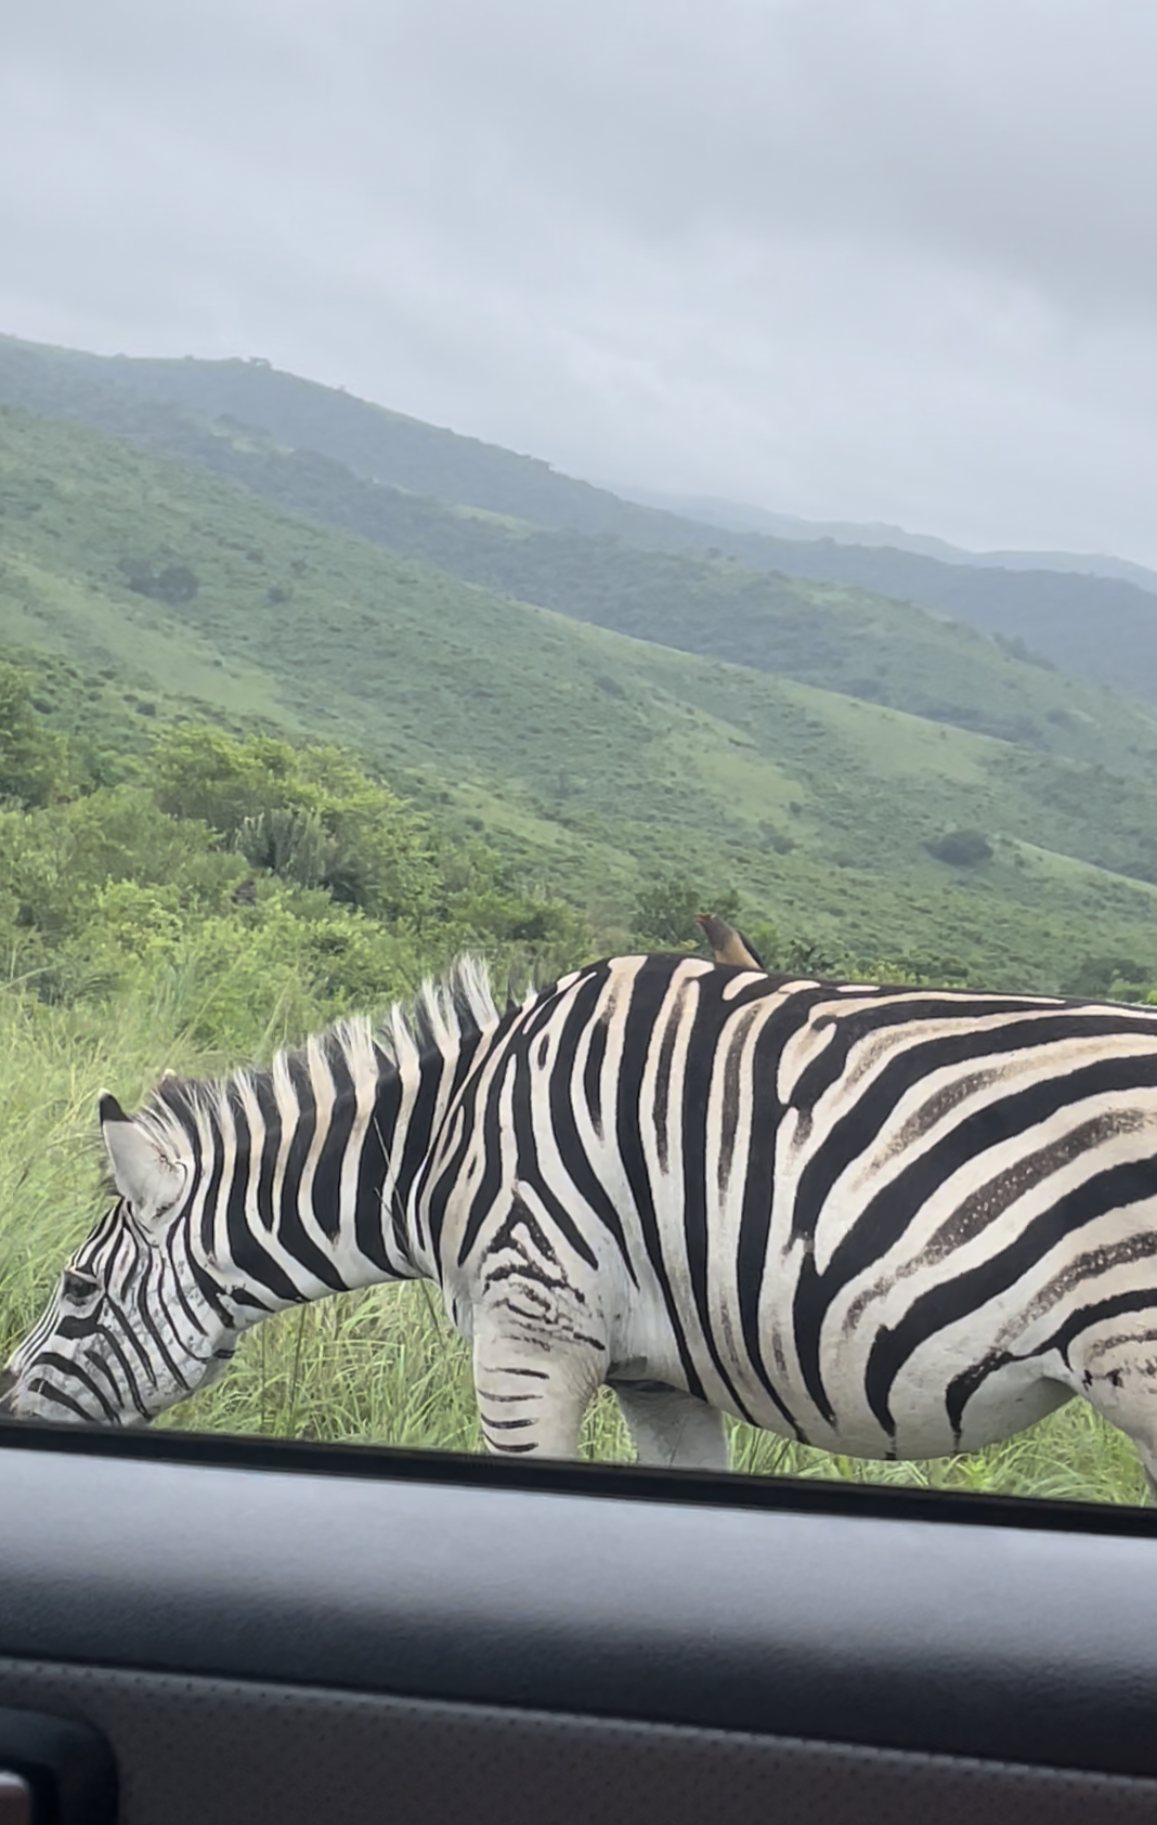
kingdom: Animalia
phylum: Chordata
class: Aves
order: Passeriformes
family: Buphagidae
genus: Buphagus
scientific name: Buphagus erythrorhynchus
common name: Red-billed oxpecker
